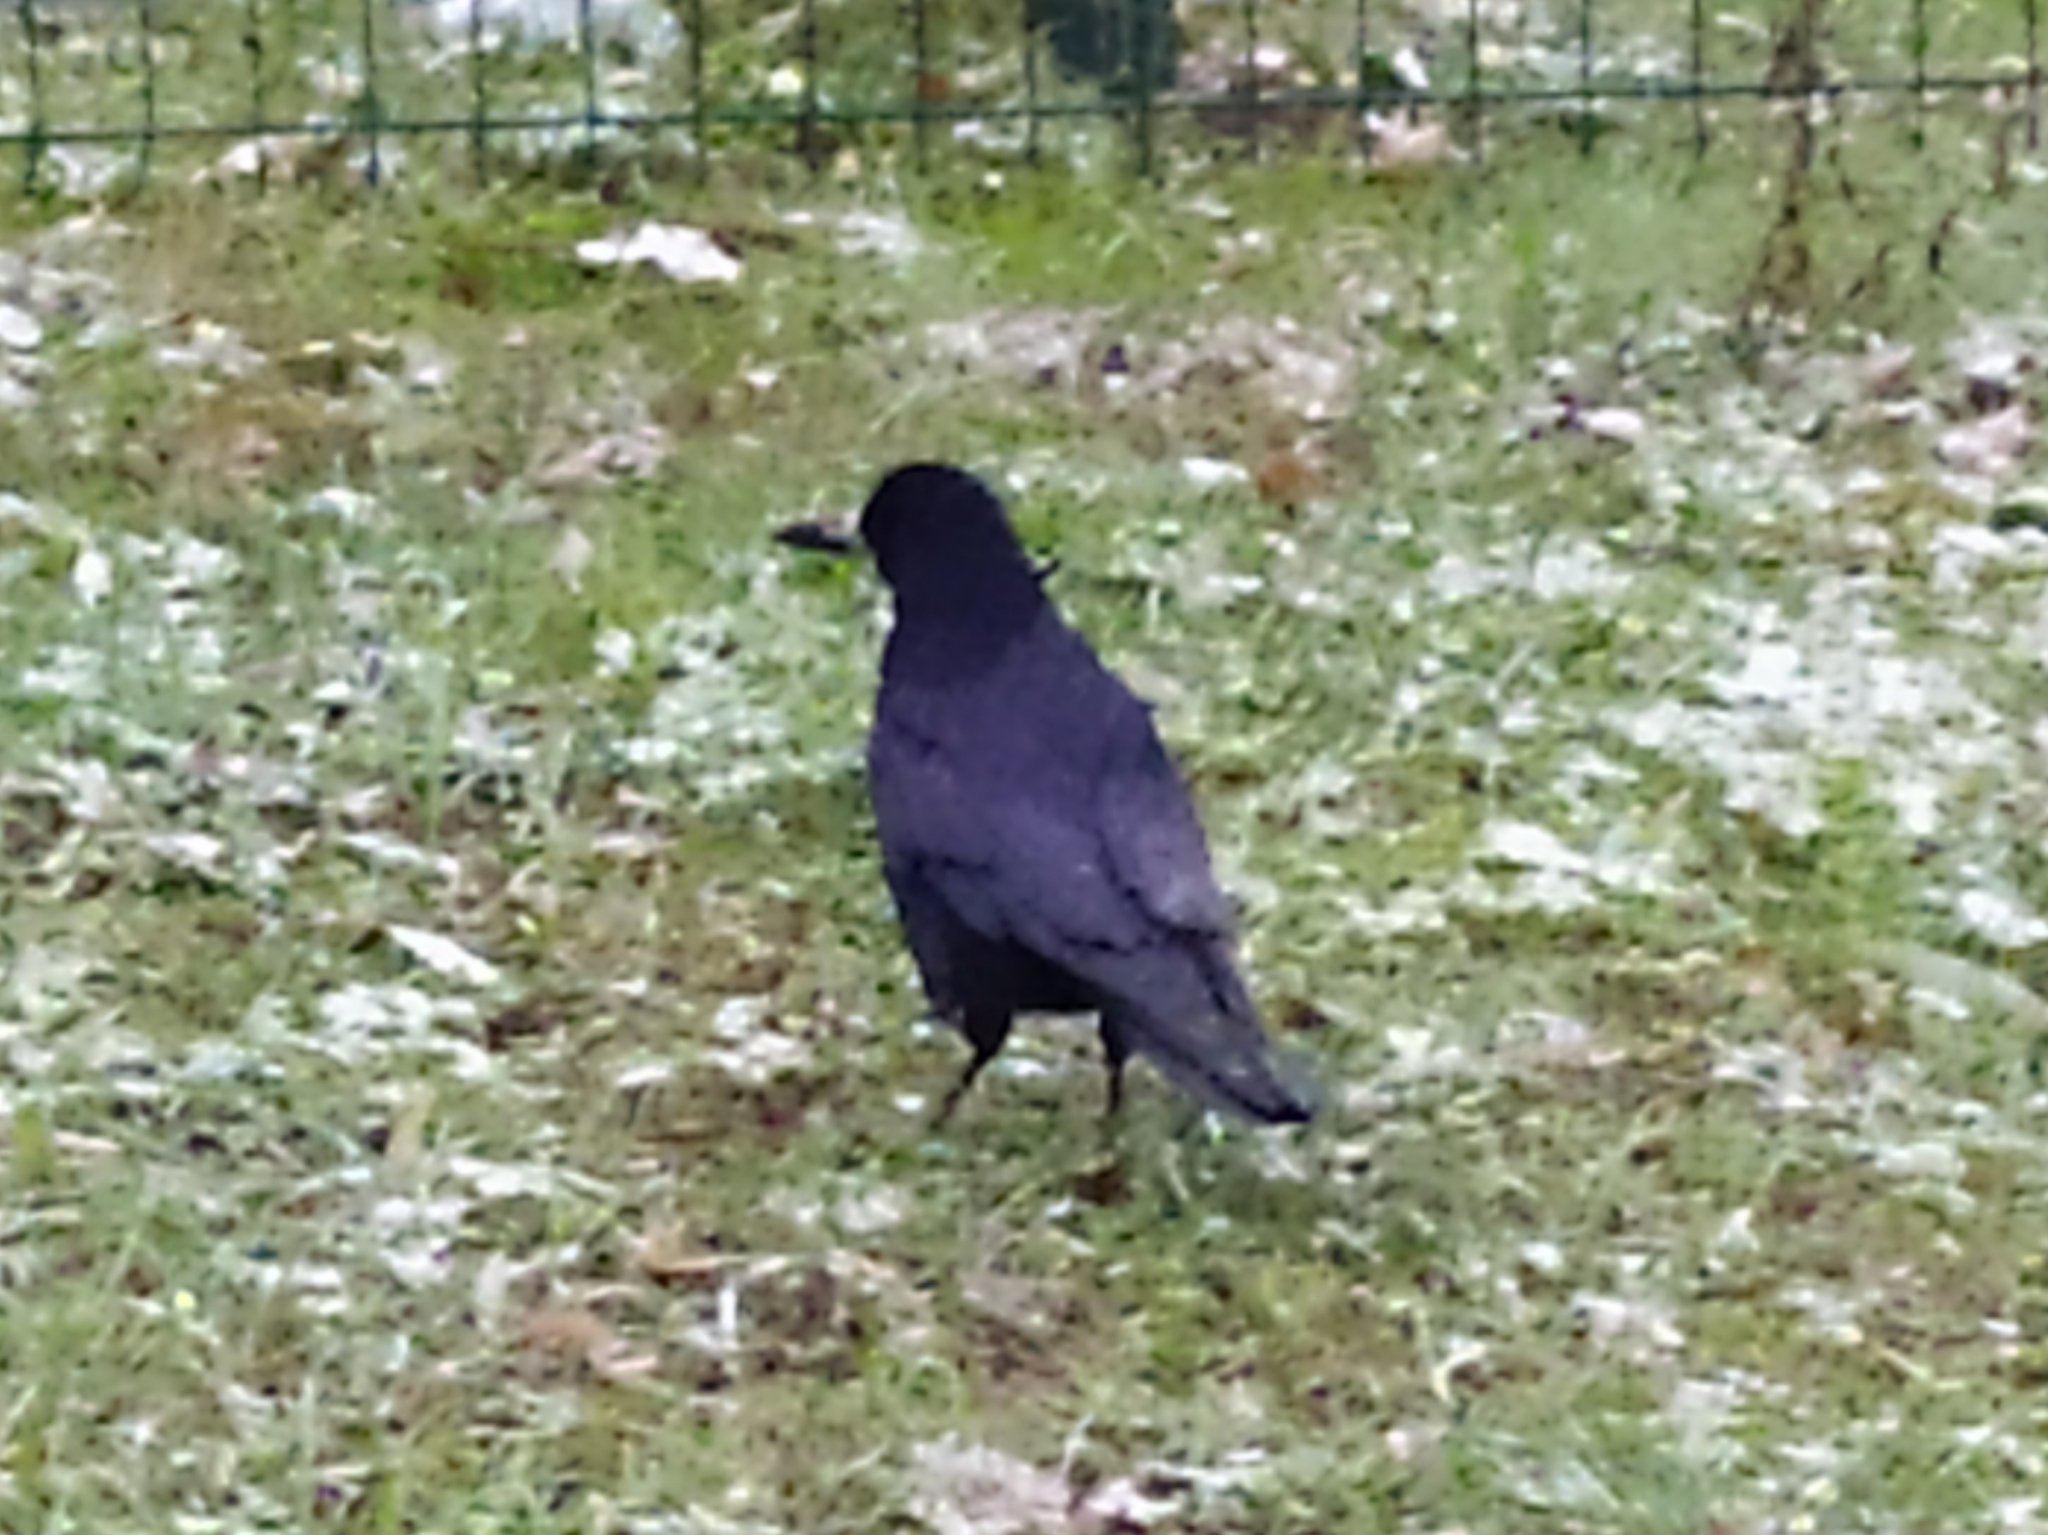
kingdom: Animalia
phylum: Chordata
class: Aves
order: Passeriformes
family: Corvidae
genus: Corvus
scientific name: Corvus frugilegus
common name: Rook
